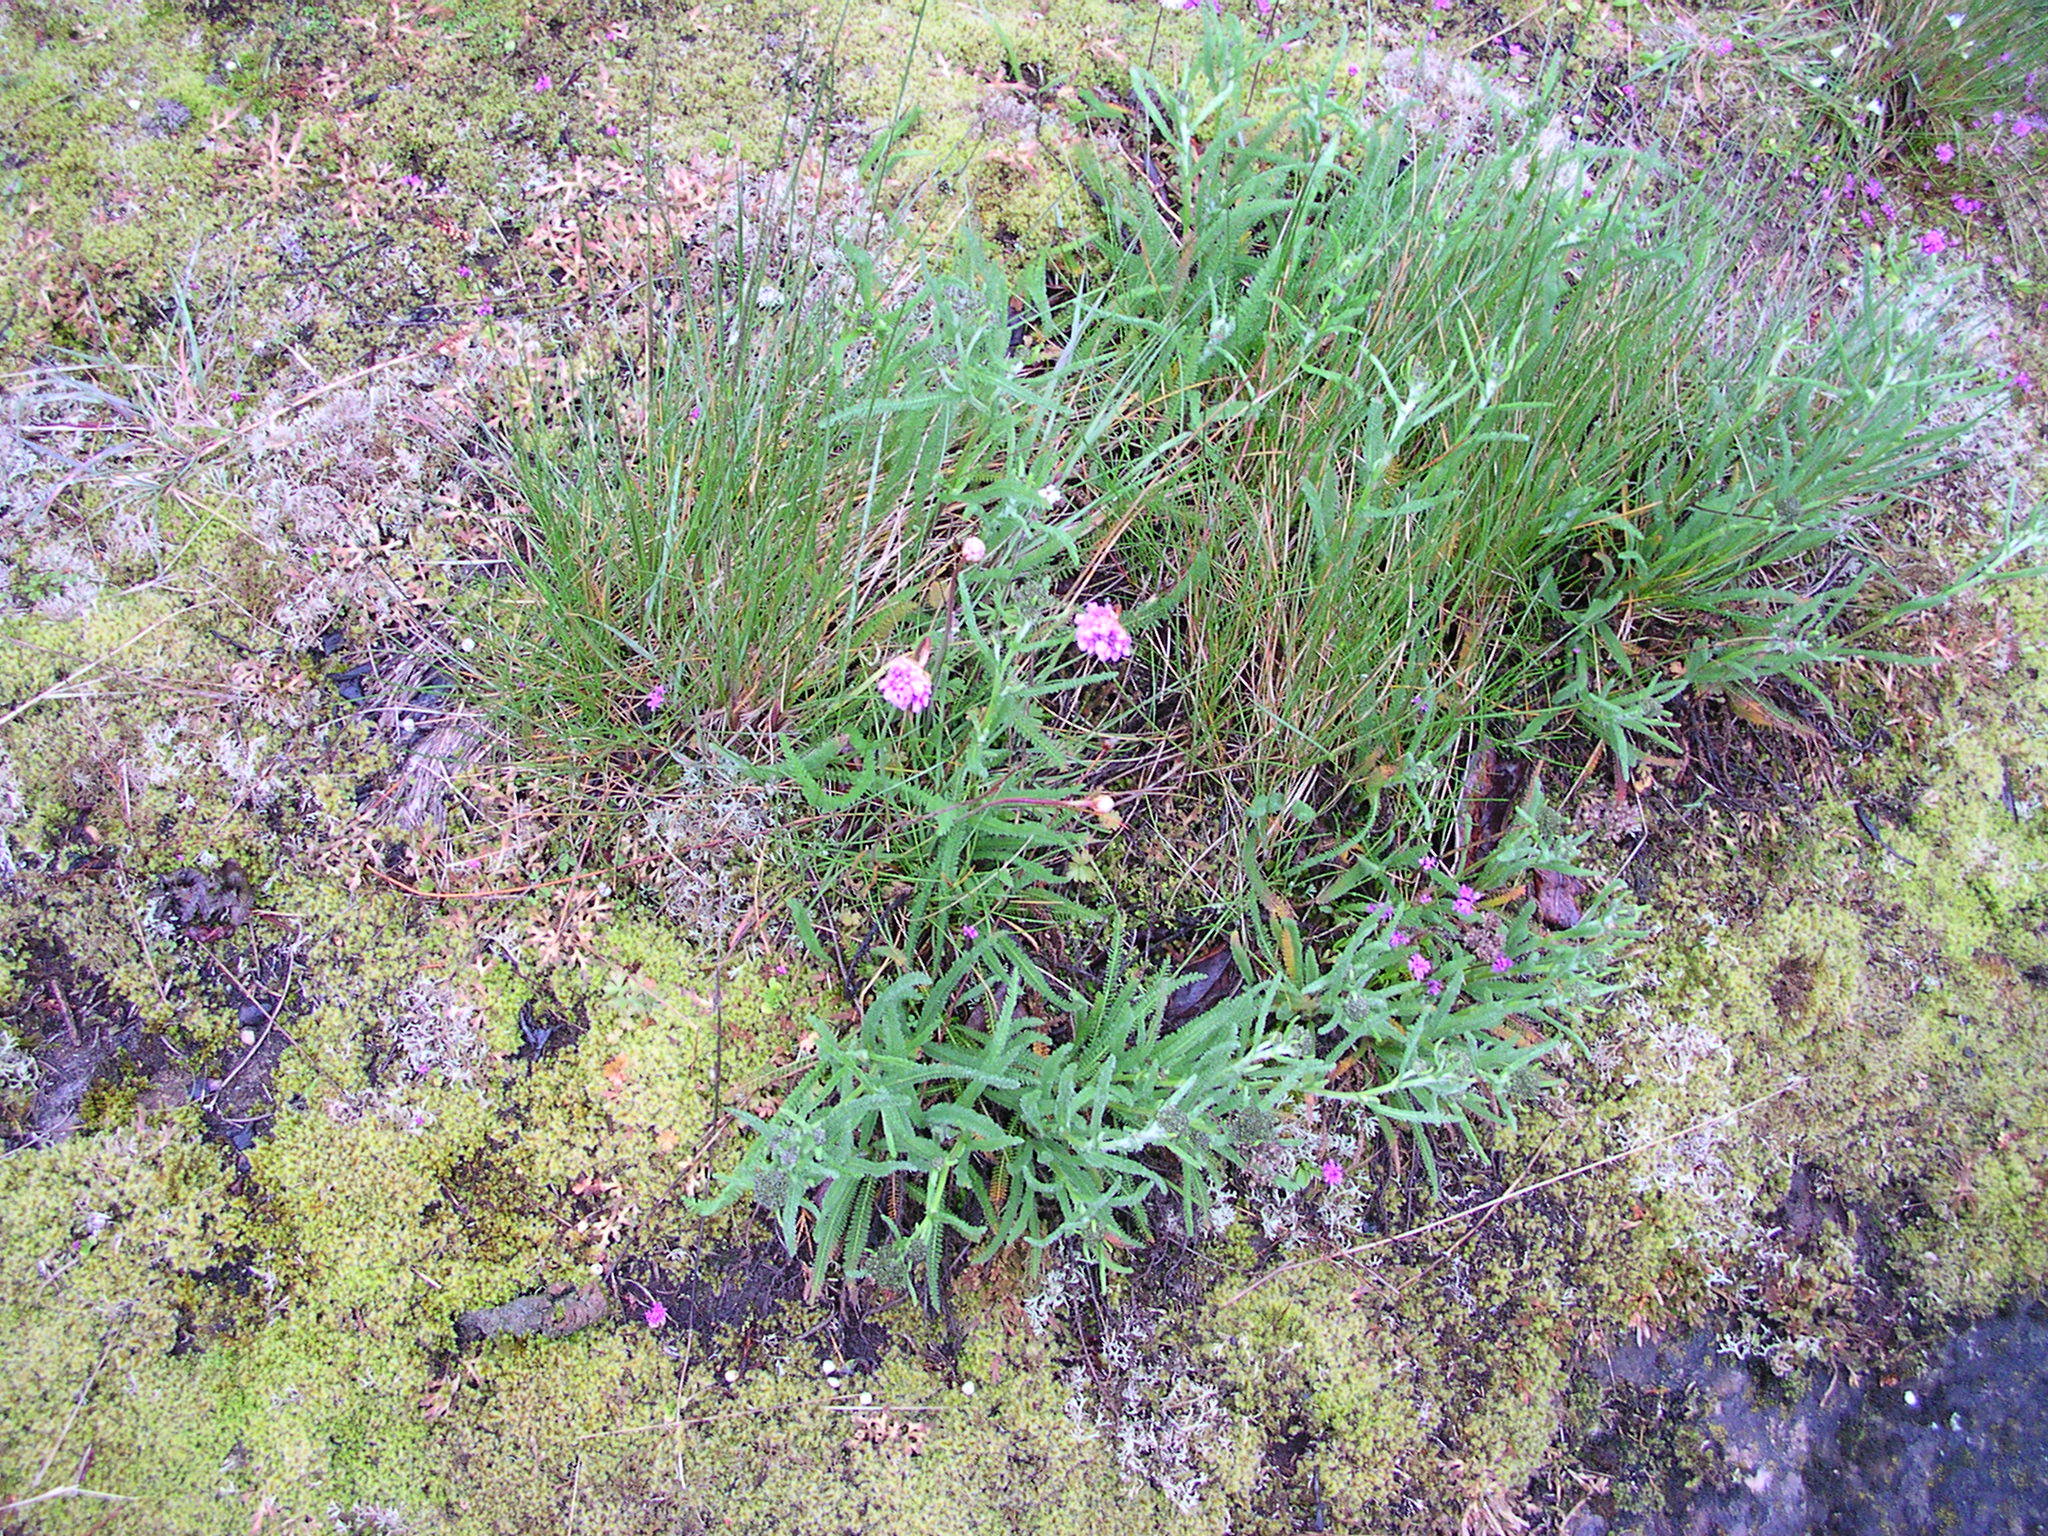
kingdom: Plantae
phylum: Tracheophyta
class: Magnoliopsida
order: Caryophyllales
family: Plumbaginaceae
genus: Armeria
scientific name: Armeria maritima
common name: Thrift
